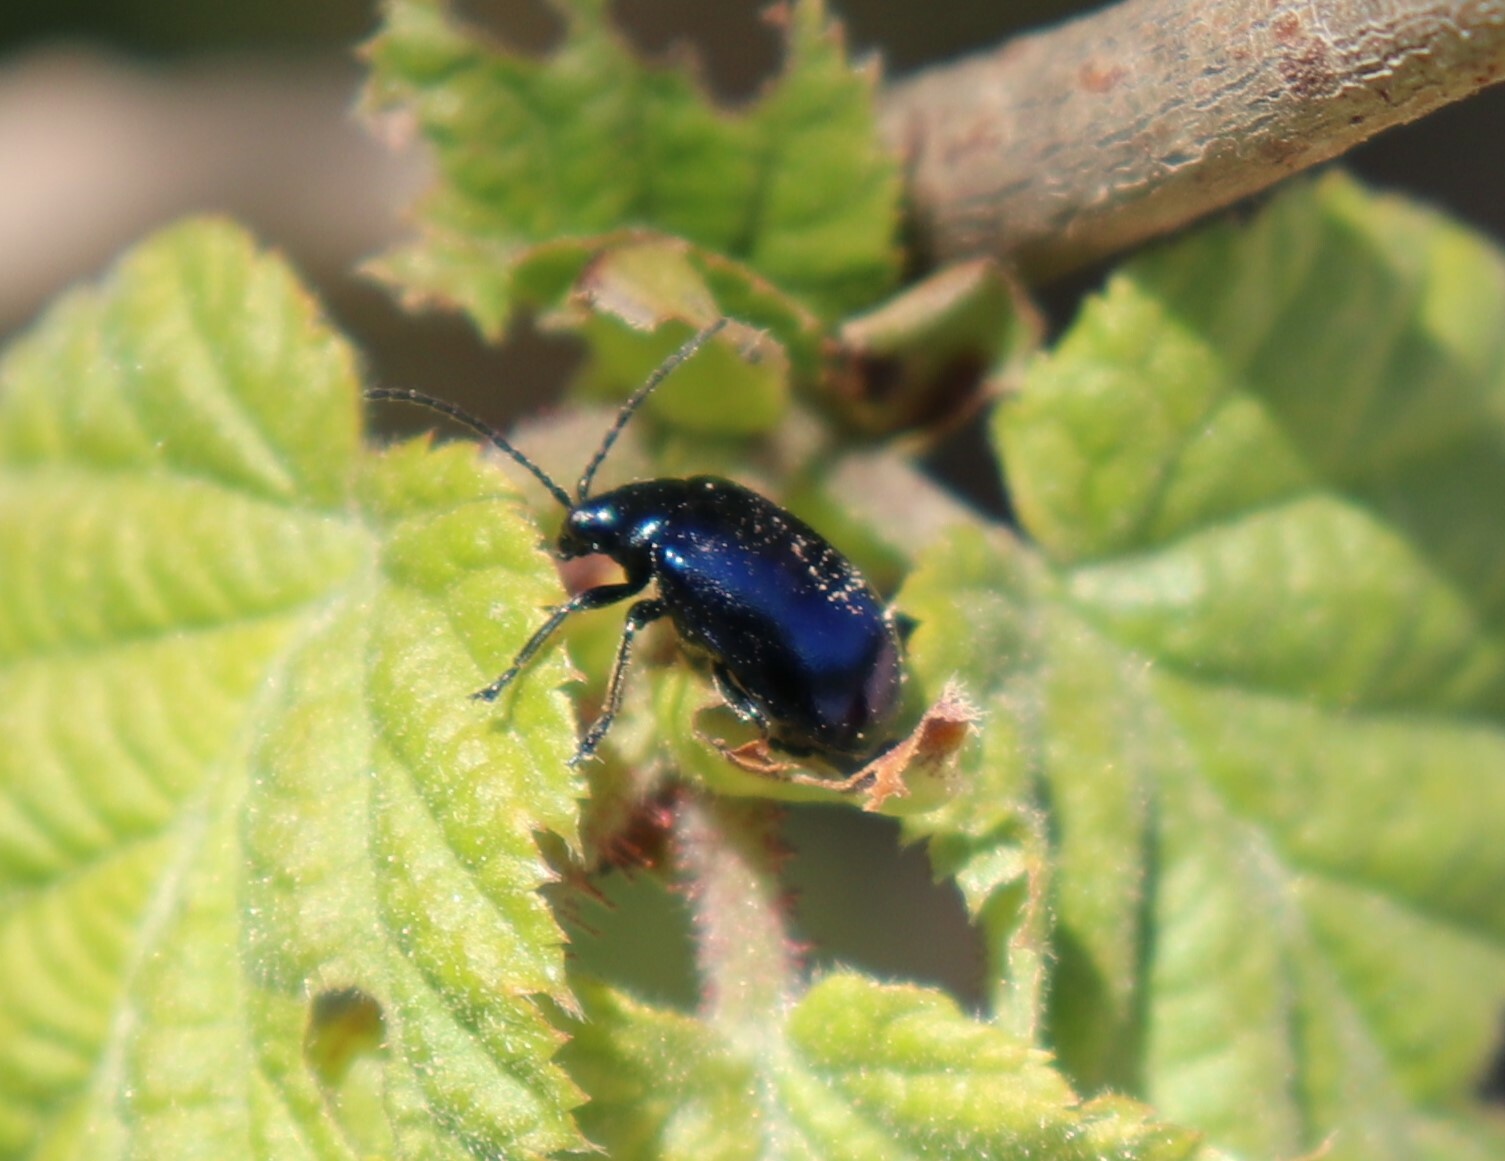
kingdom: Animalia
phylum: Arthropoda
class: Insecta
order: Coleoptera
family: Chrysomelidae
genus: Agelastica
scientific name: Agelastica alni
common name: Alder leaf beetle
